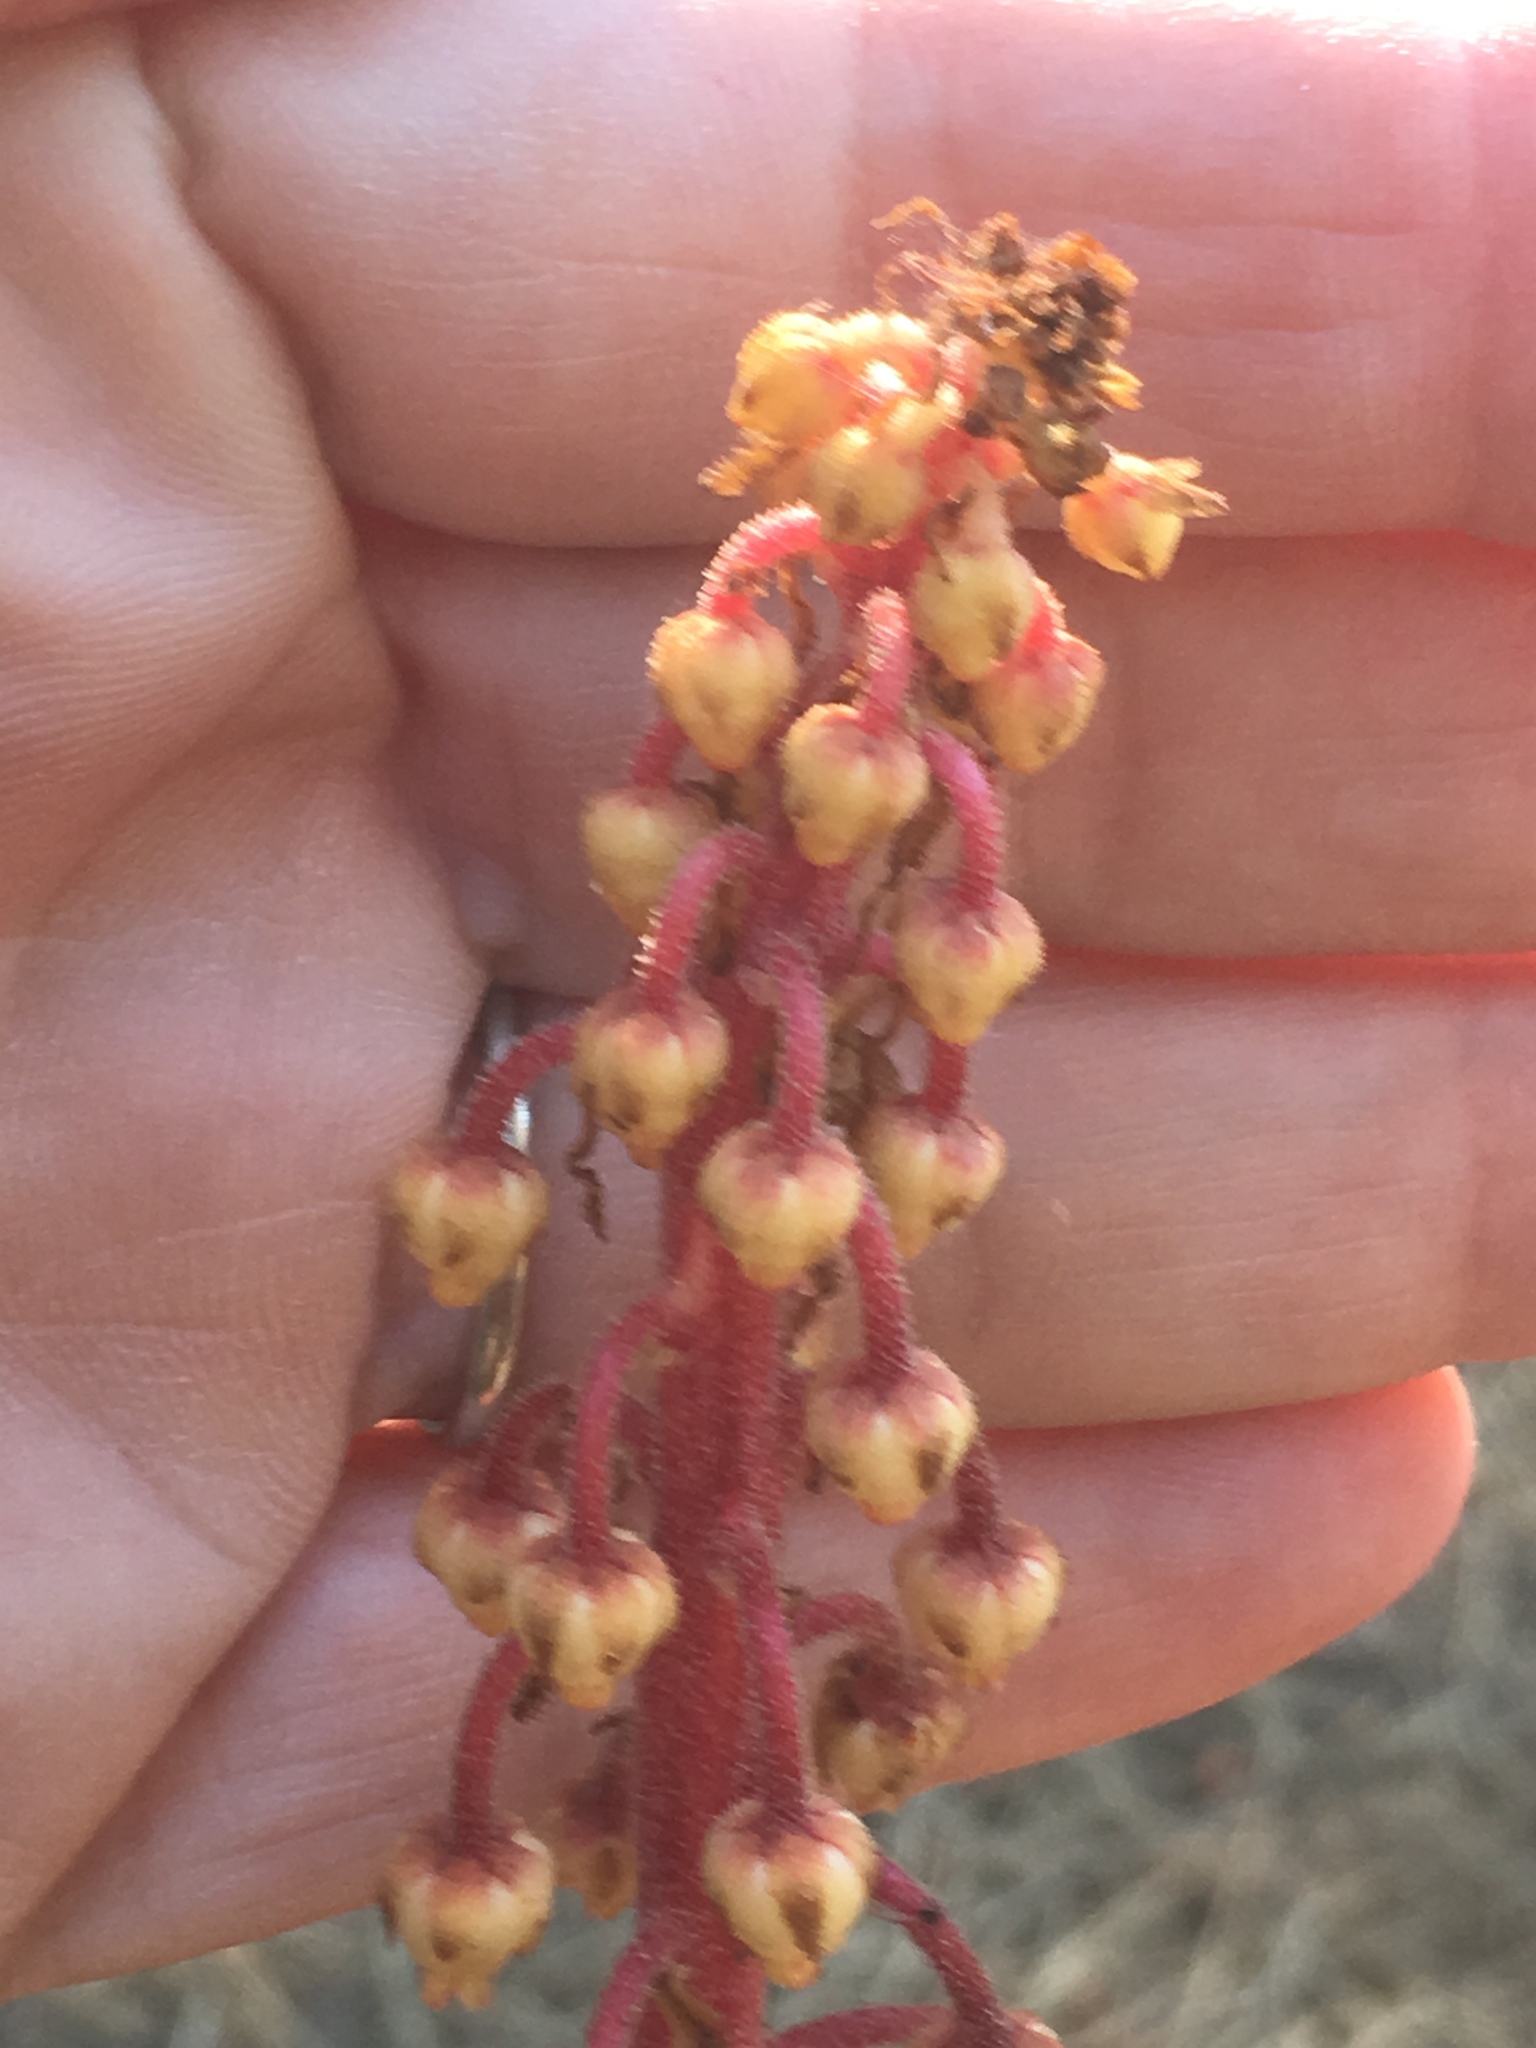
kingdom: Plantae
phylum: Tracheophyta
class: Magnoliopsida
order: Ericales
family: Ericaceae
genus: Pterospora
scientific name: Pterospora andromedea
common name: Giant bird's-nest
